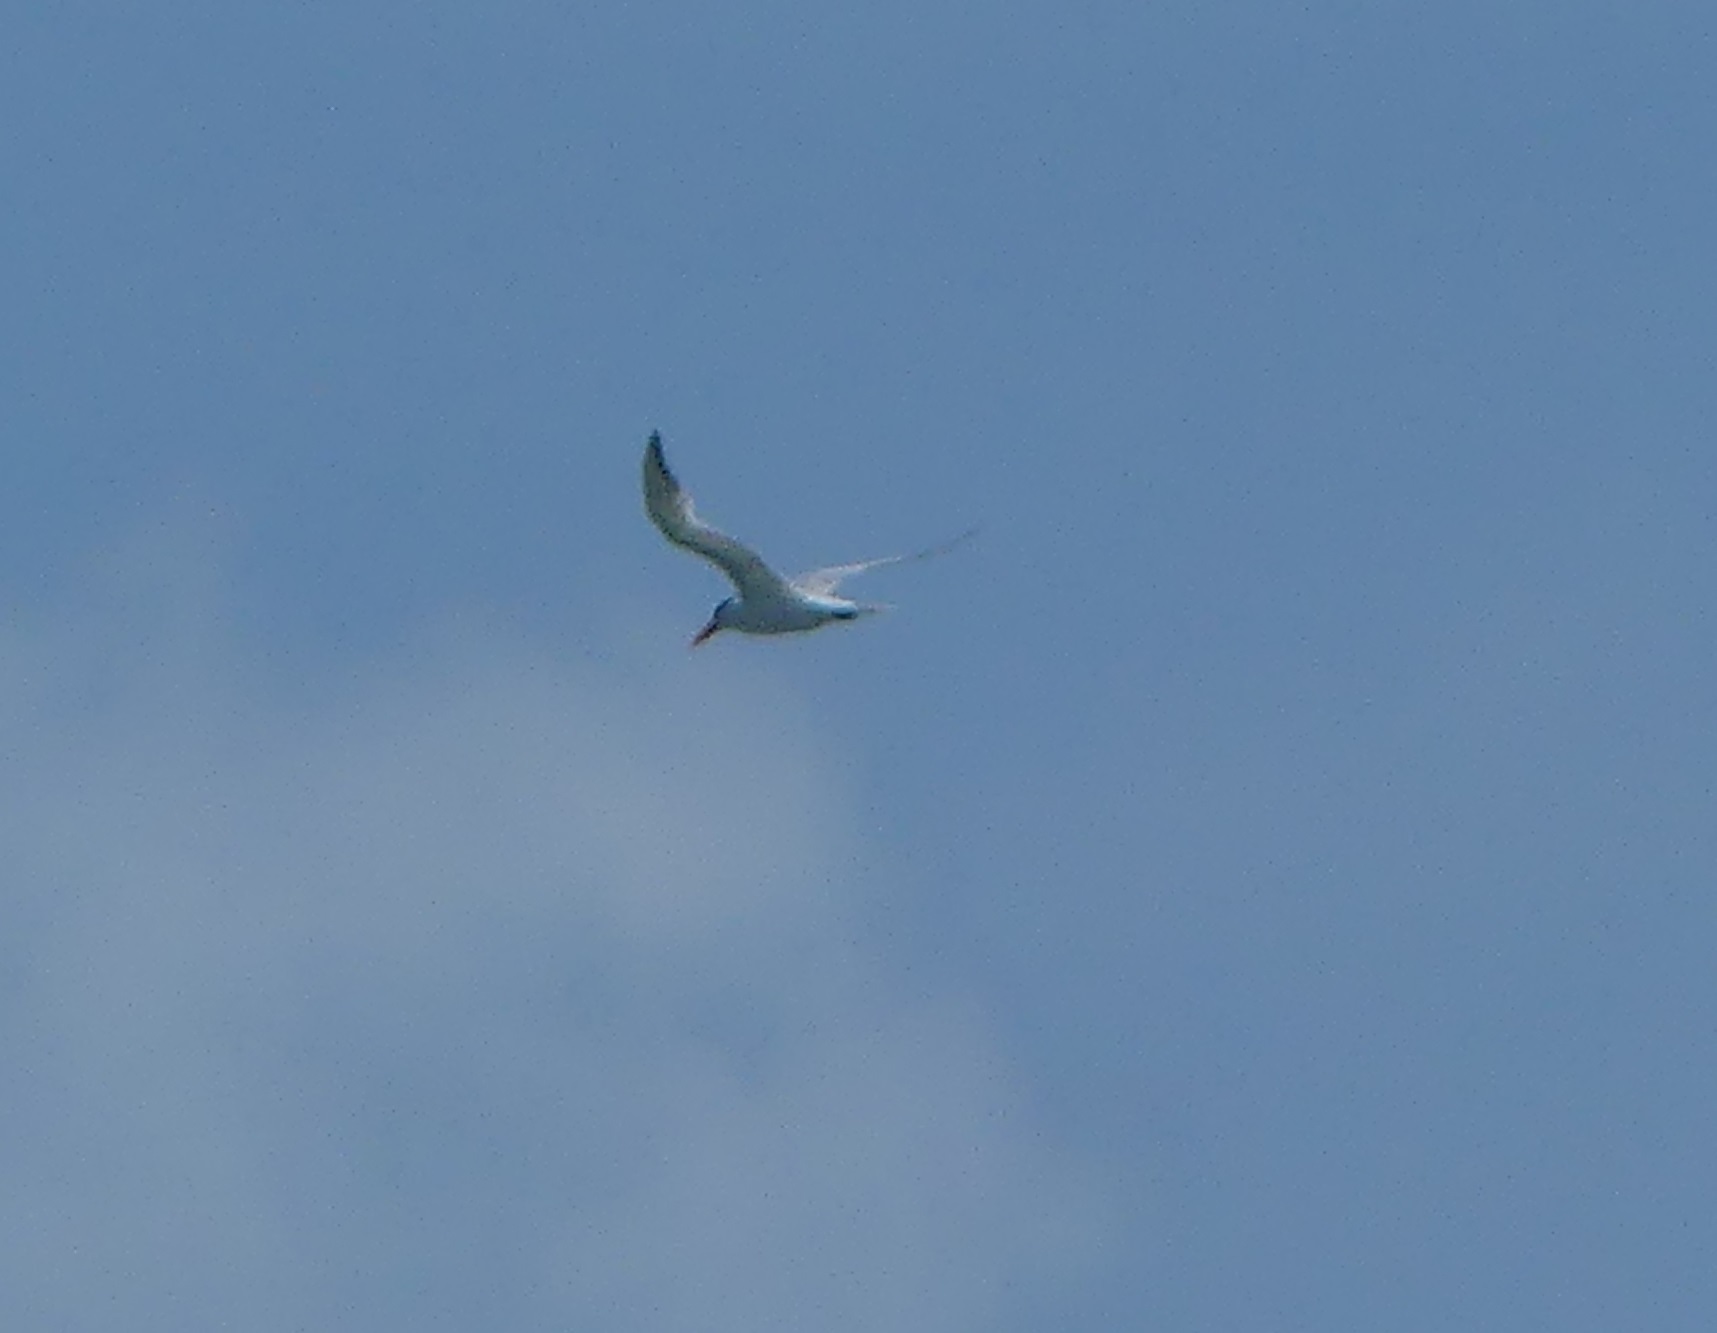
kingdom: Animalia
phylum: Chordata
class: Aves
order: Charadriiformes
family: Laridae
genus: Thalasseus
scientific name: Thalasseus maximus
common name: Royal tern
